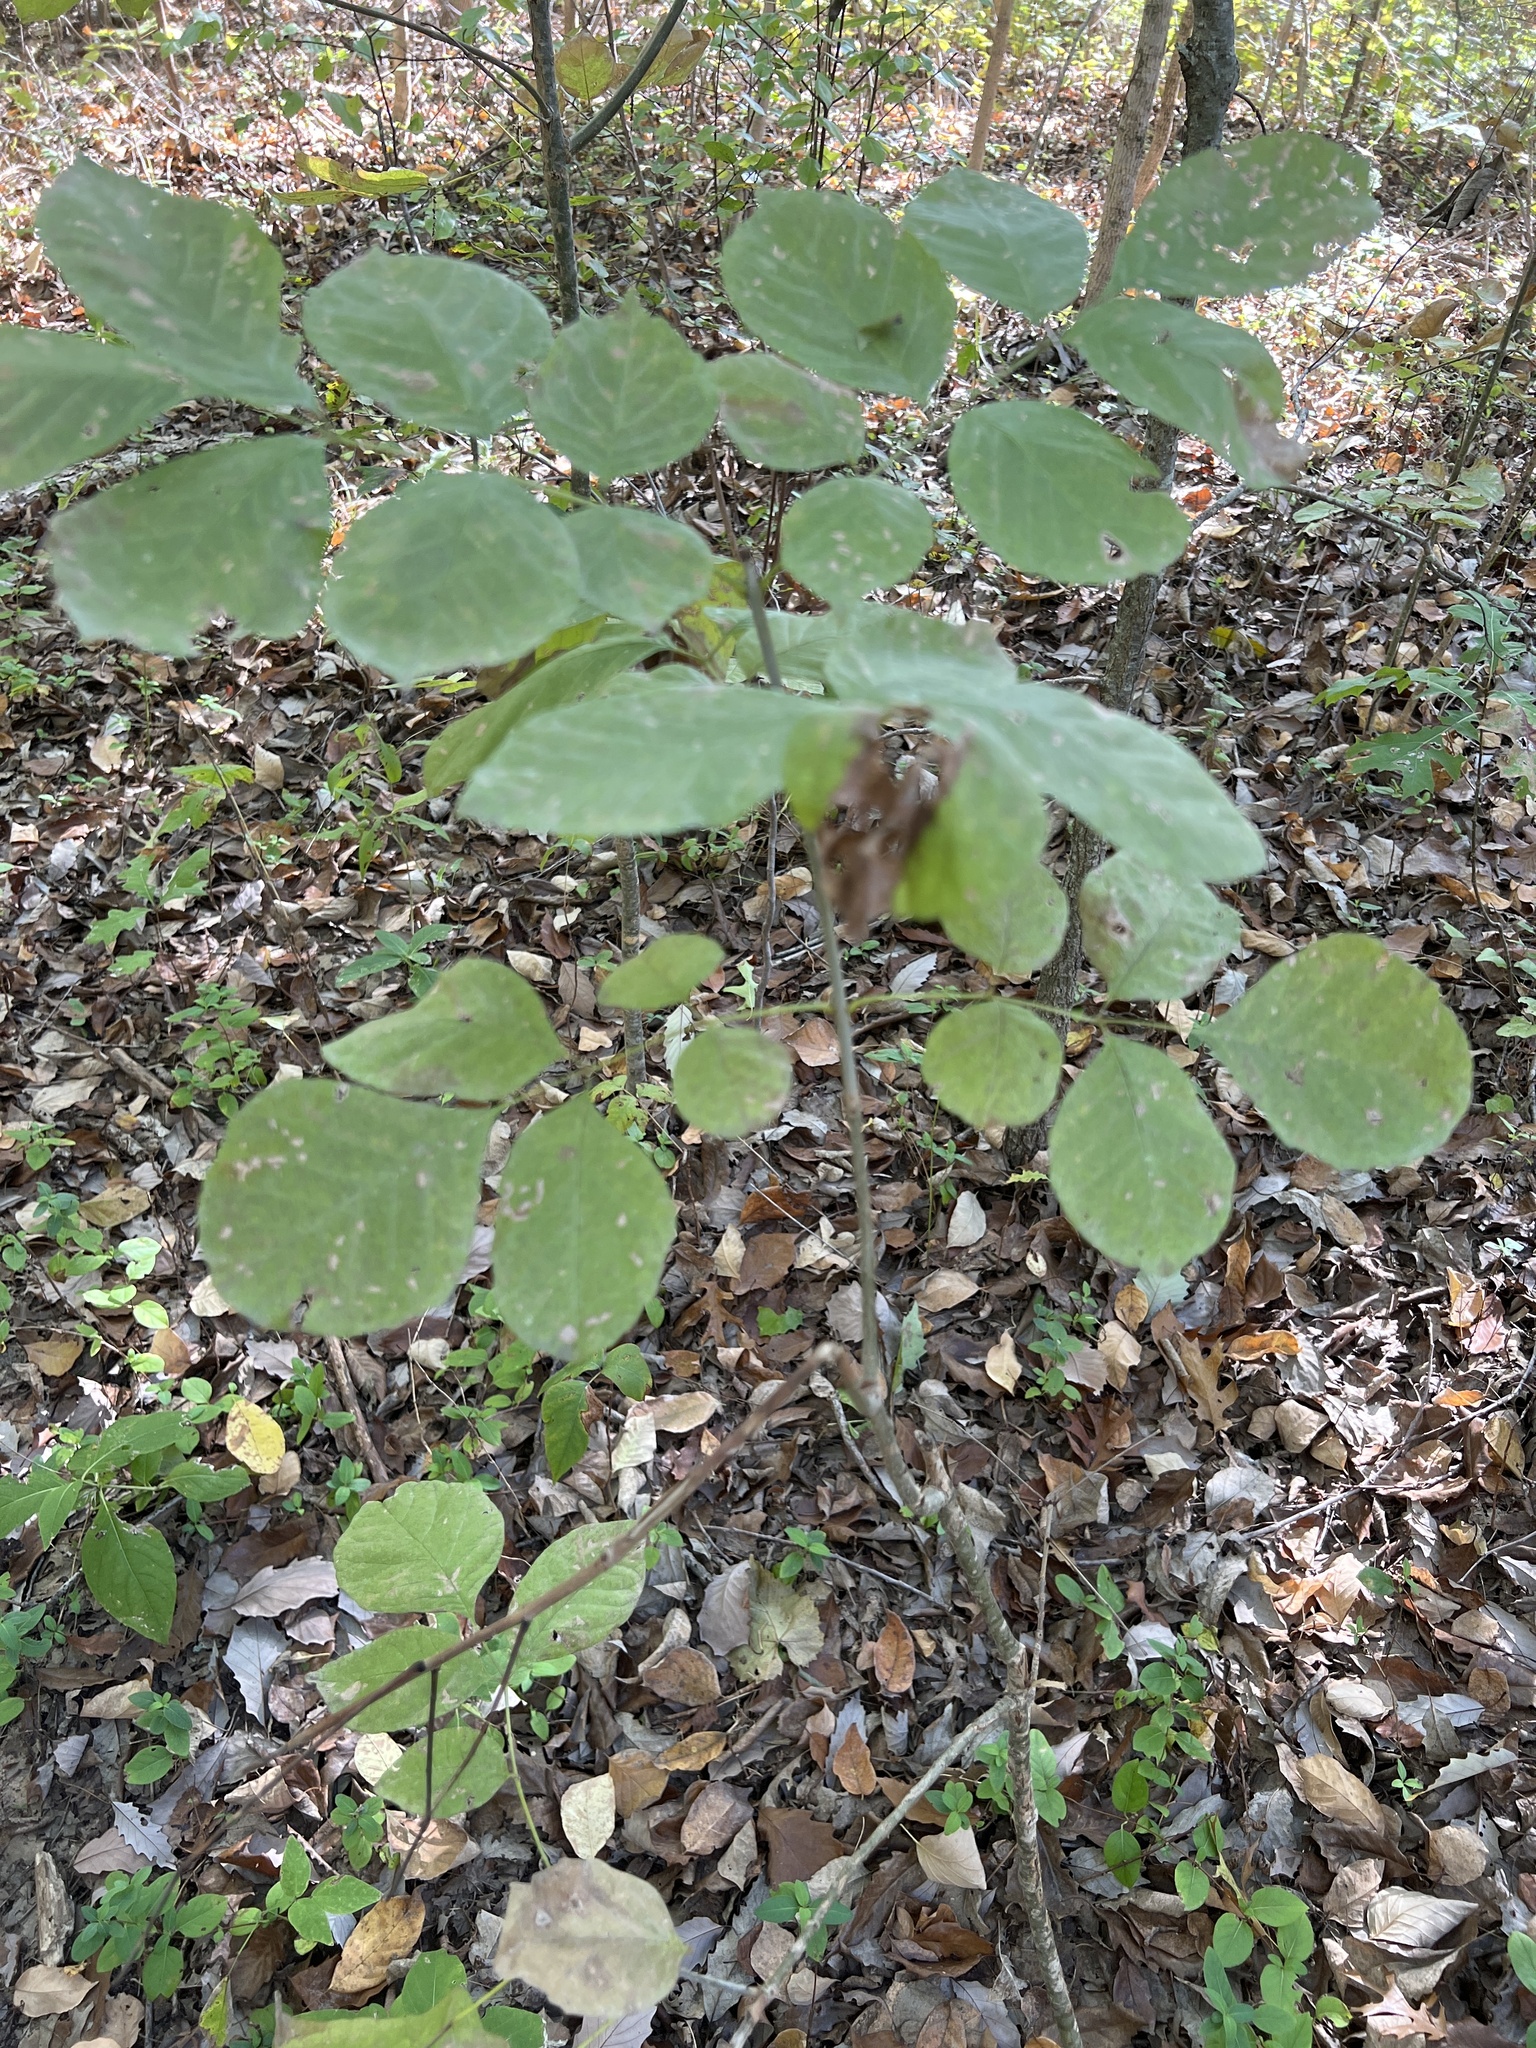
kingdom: Plantae
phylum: Tracheophyta
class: Magnoliopsida
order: Lamiales
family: Oleaceae
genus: Fraxinus
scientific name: Fraxinus albicans
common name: Texas ash
